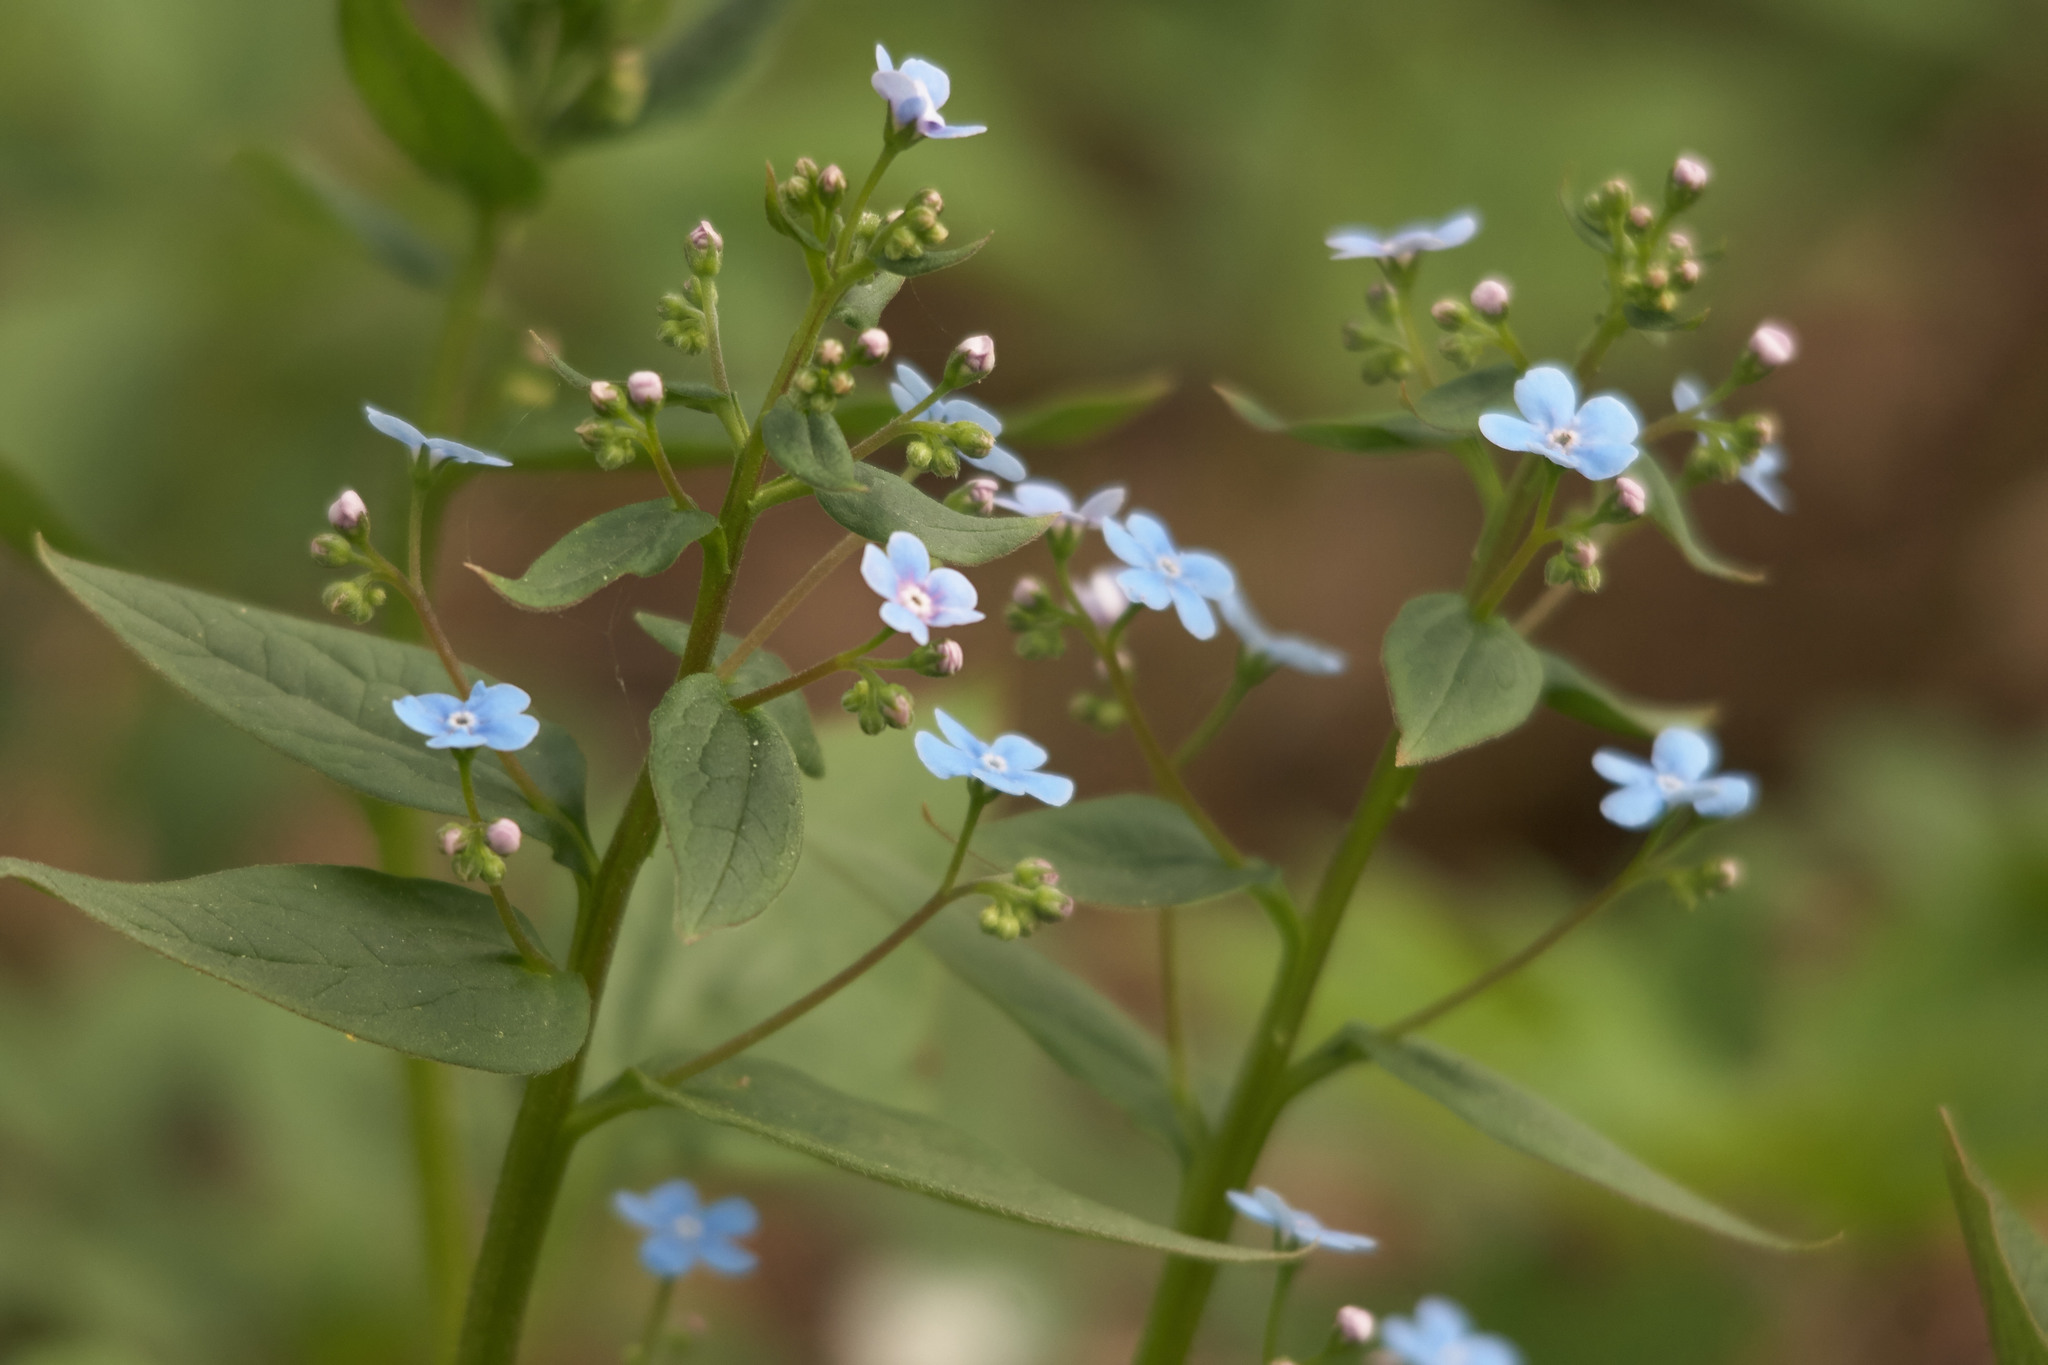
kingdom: Plantae
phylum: Tracheophyta
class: Magnoliopsida
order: Boraginales
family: Boraginaceae
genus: Brunnera
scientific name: Brunnera sibirica
